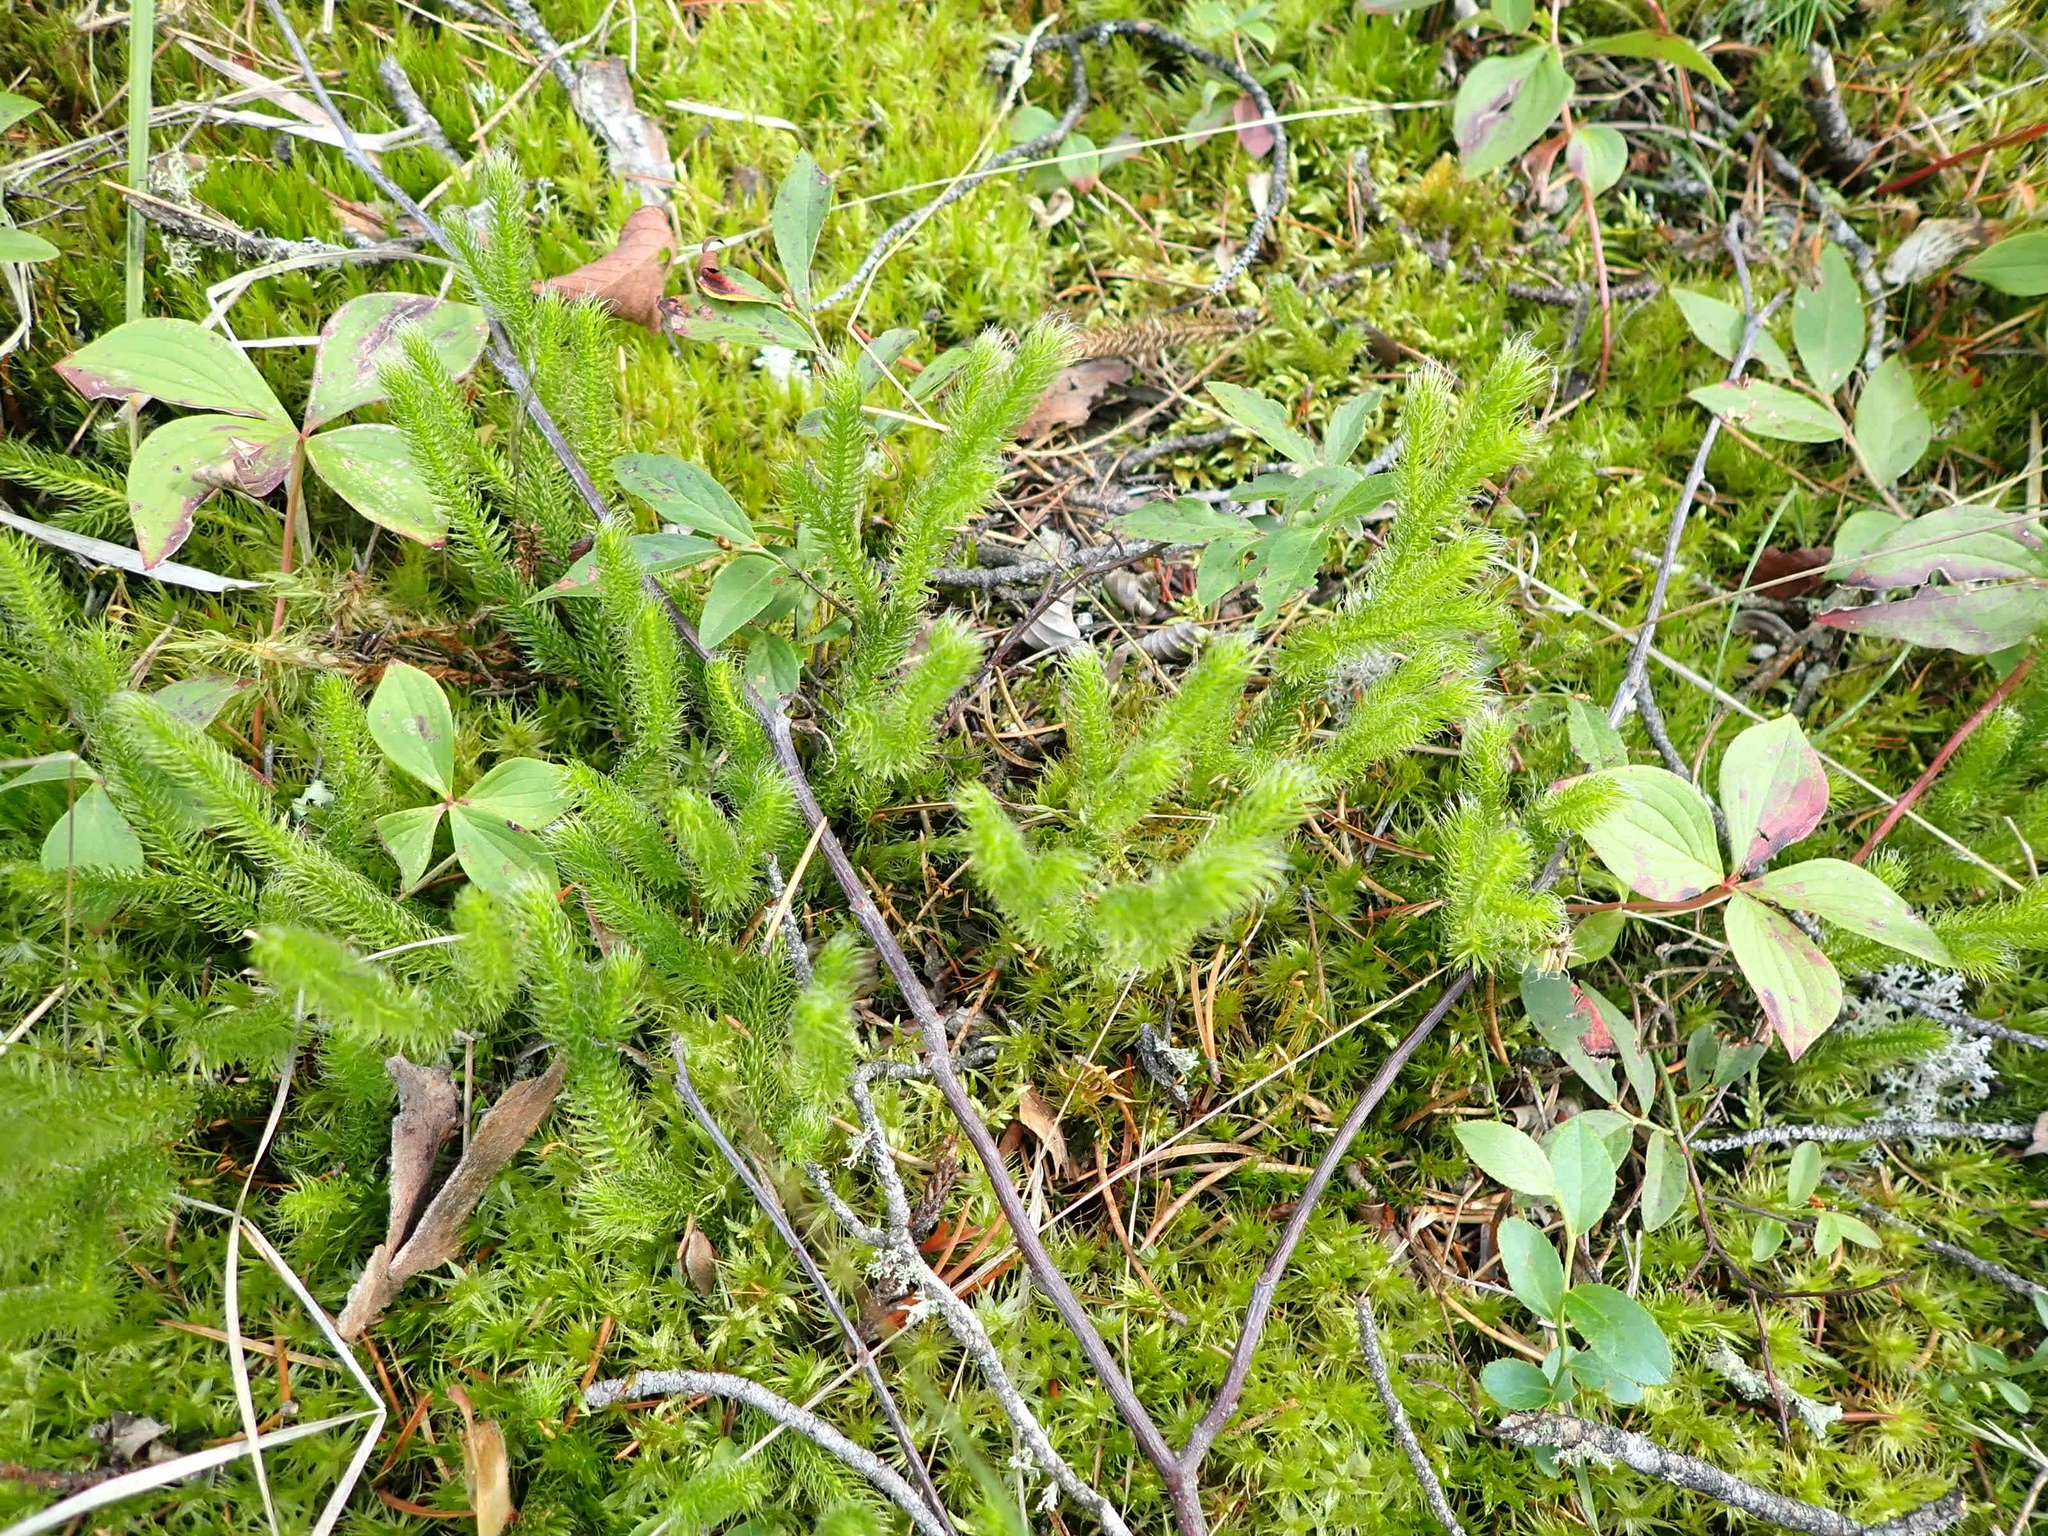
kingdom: Plantae
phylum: Tracheophyta
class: Lycopodiopsida
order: Lycopodiales
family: Lycopodiaceae
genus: Lycopodium
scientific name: Lycopodium clavatum
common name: Stag's-horn clubmoss
